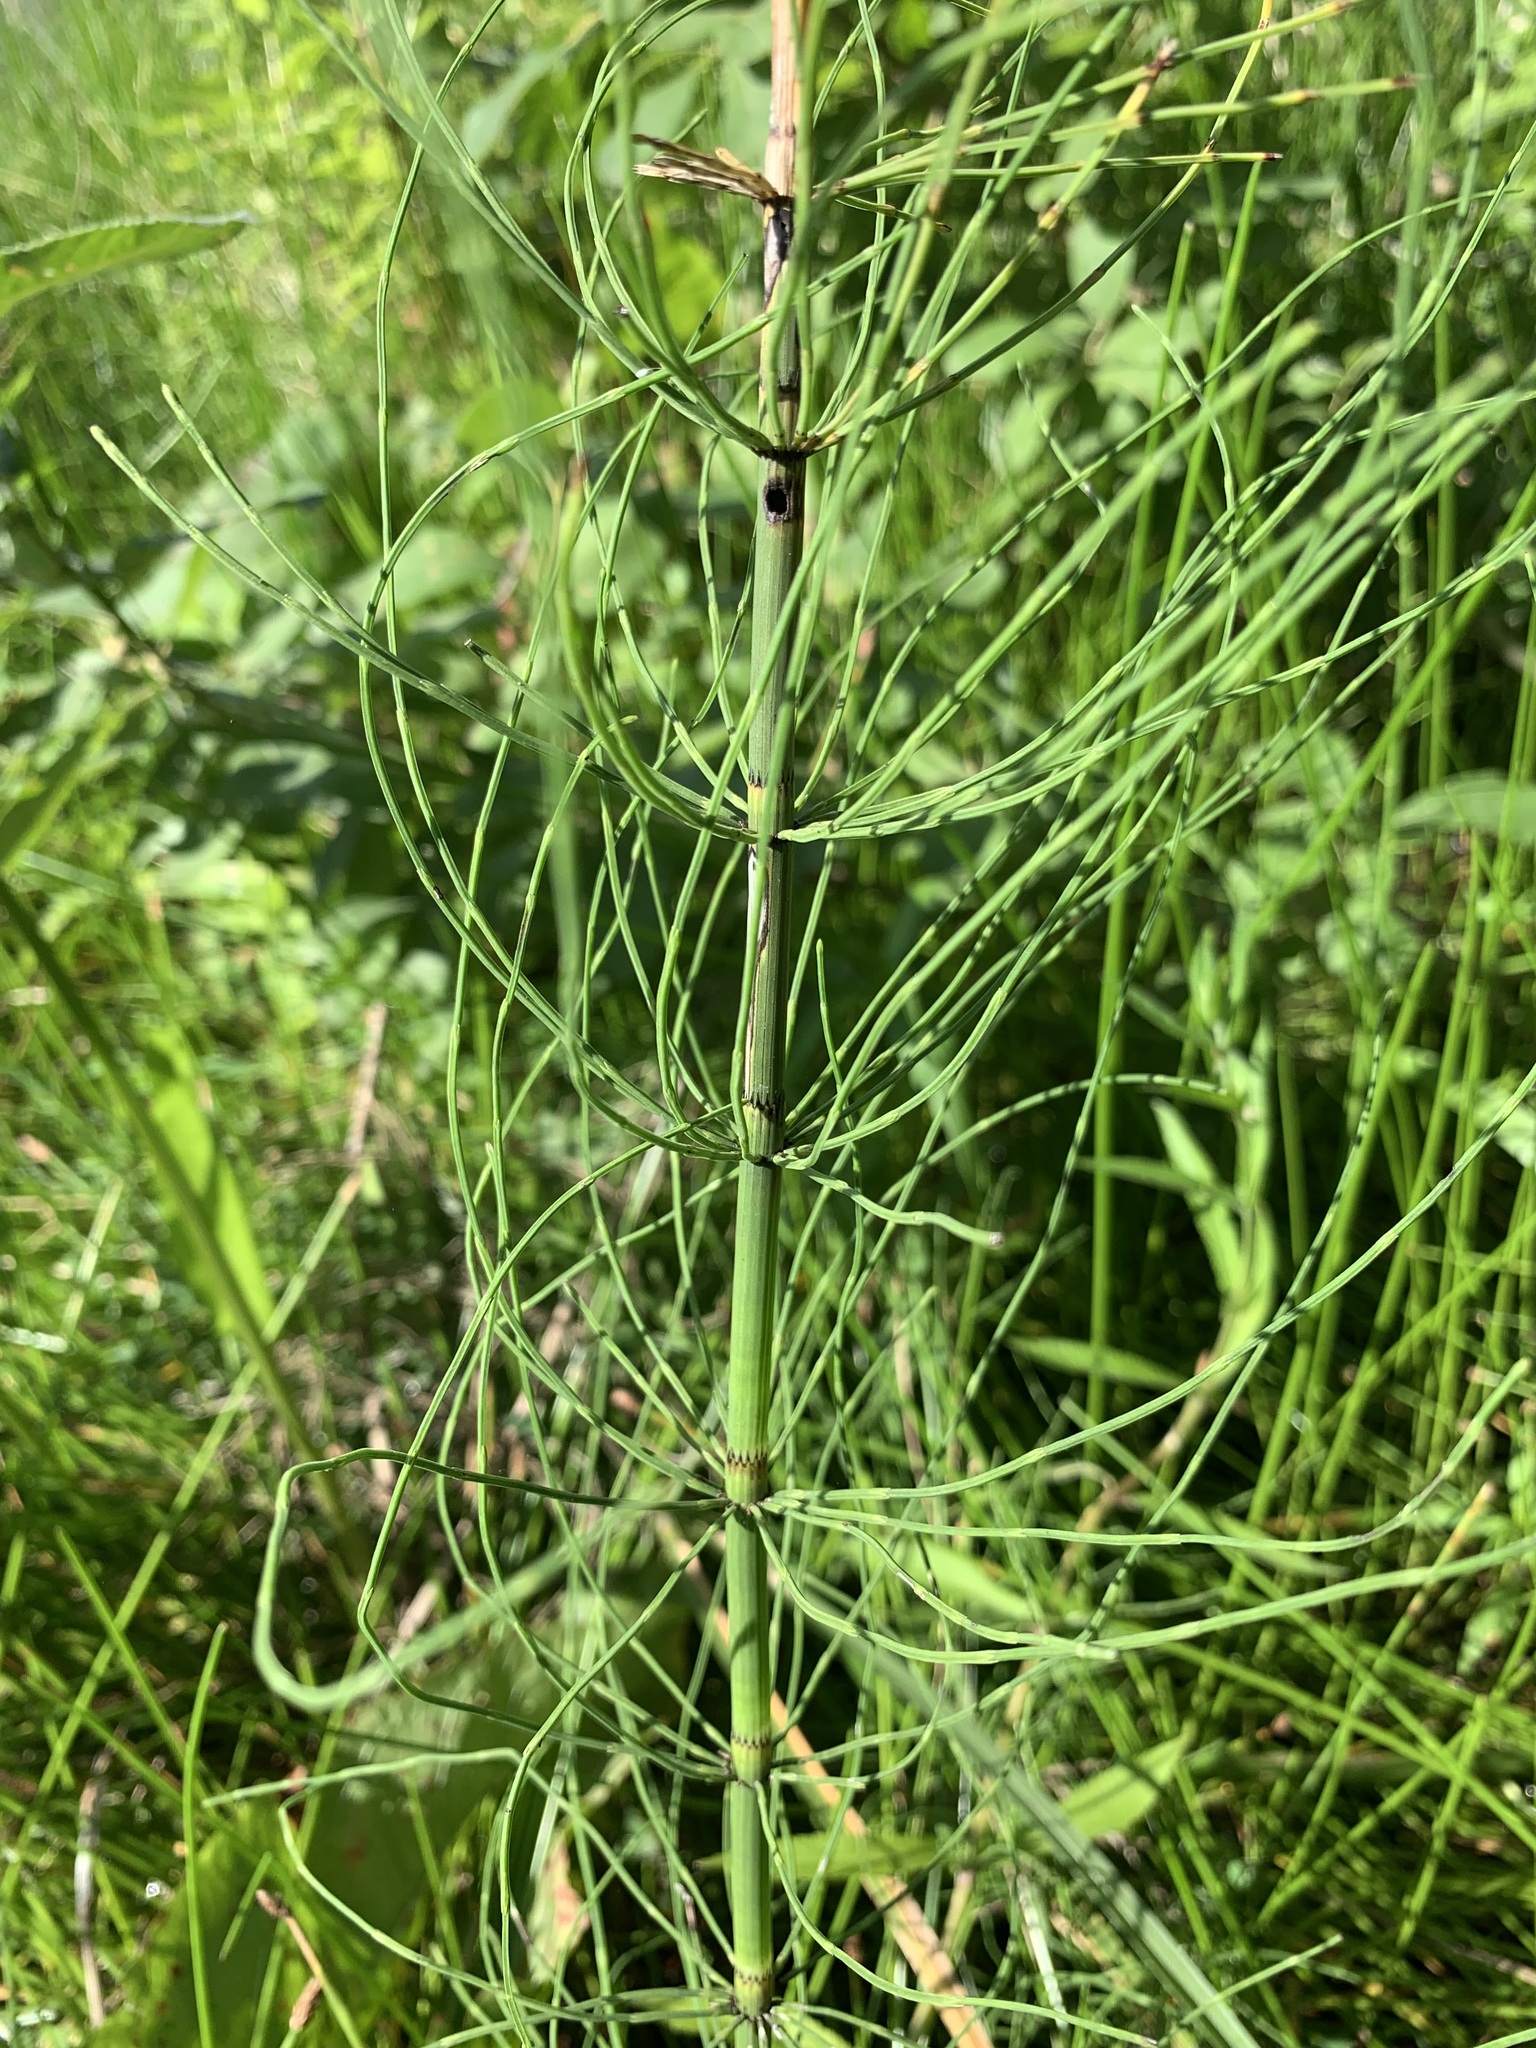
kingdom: Plantae
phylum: Tracheophyta
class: Polypodiopsida
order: Equisetales
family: Equisetaceae
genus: Equisetum
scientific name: Equisetum fluviatile
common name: Water horsetail
